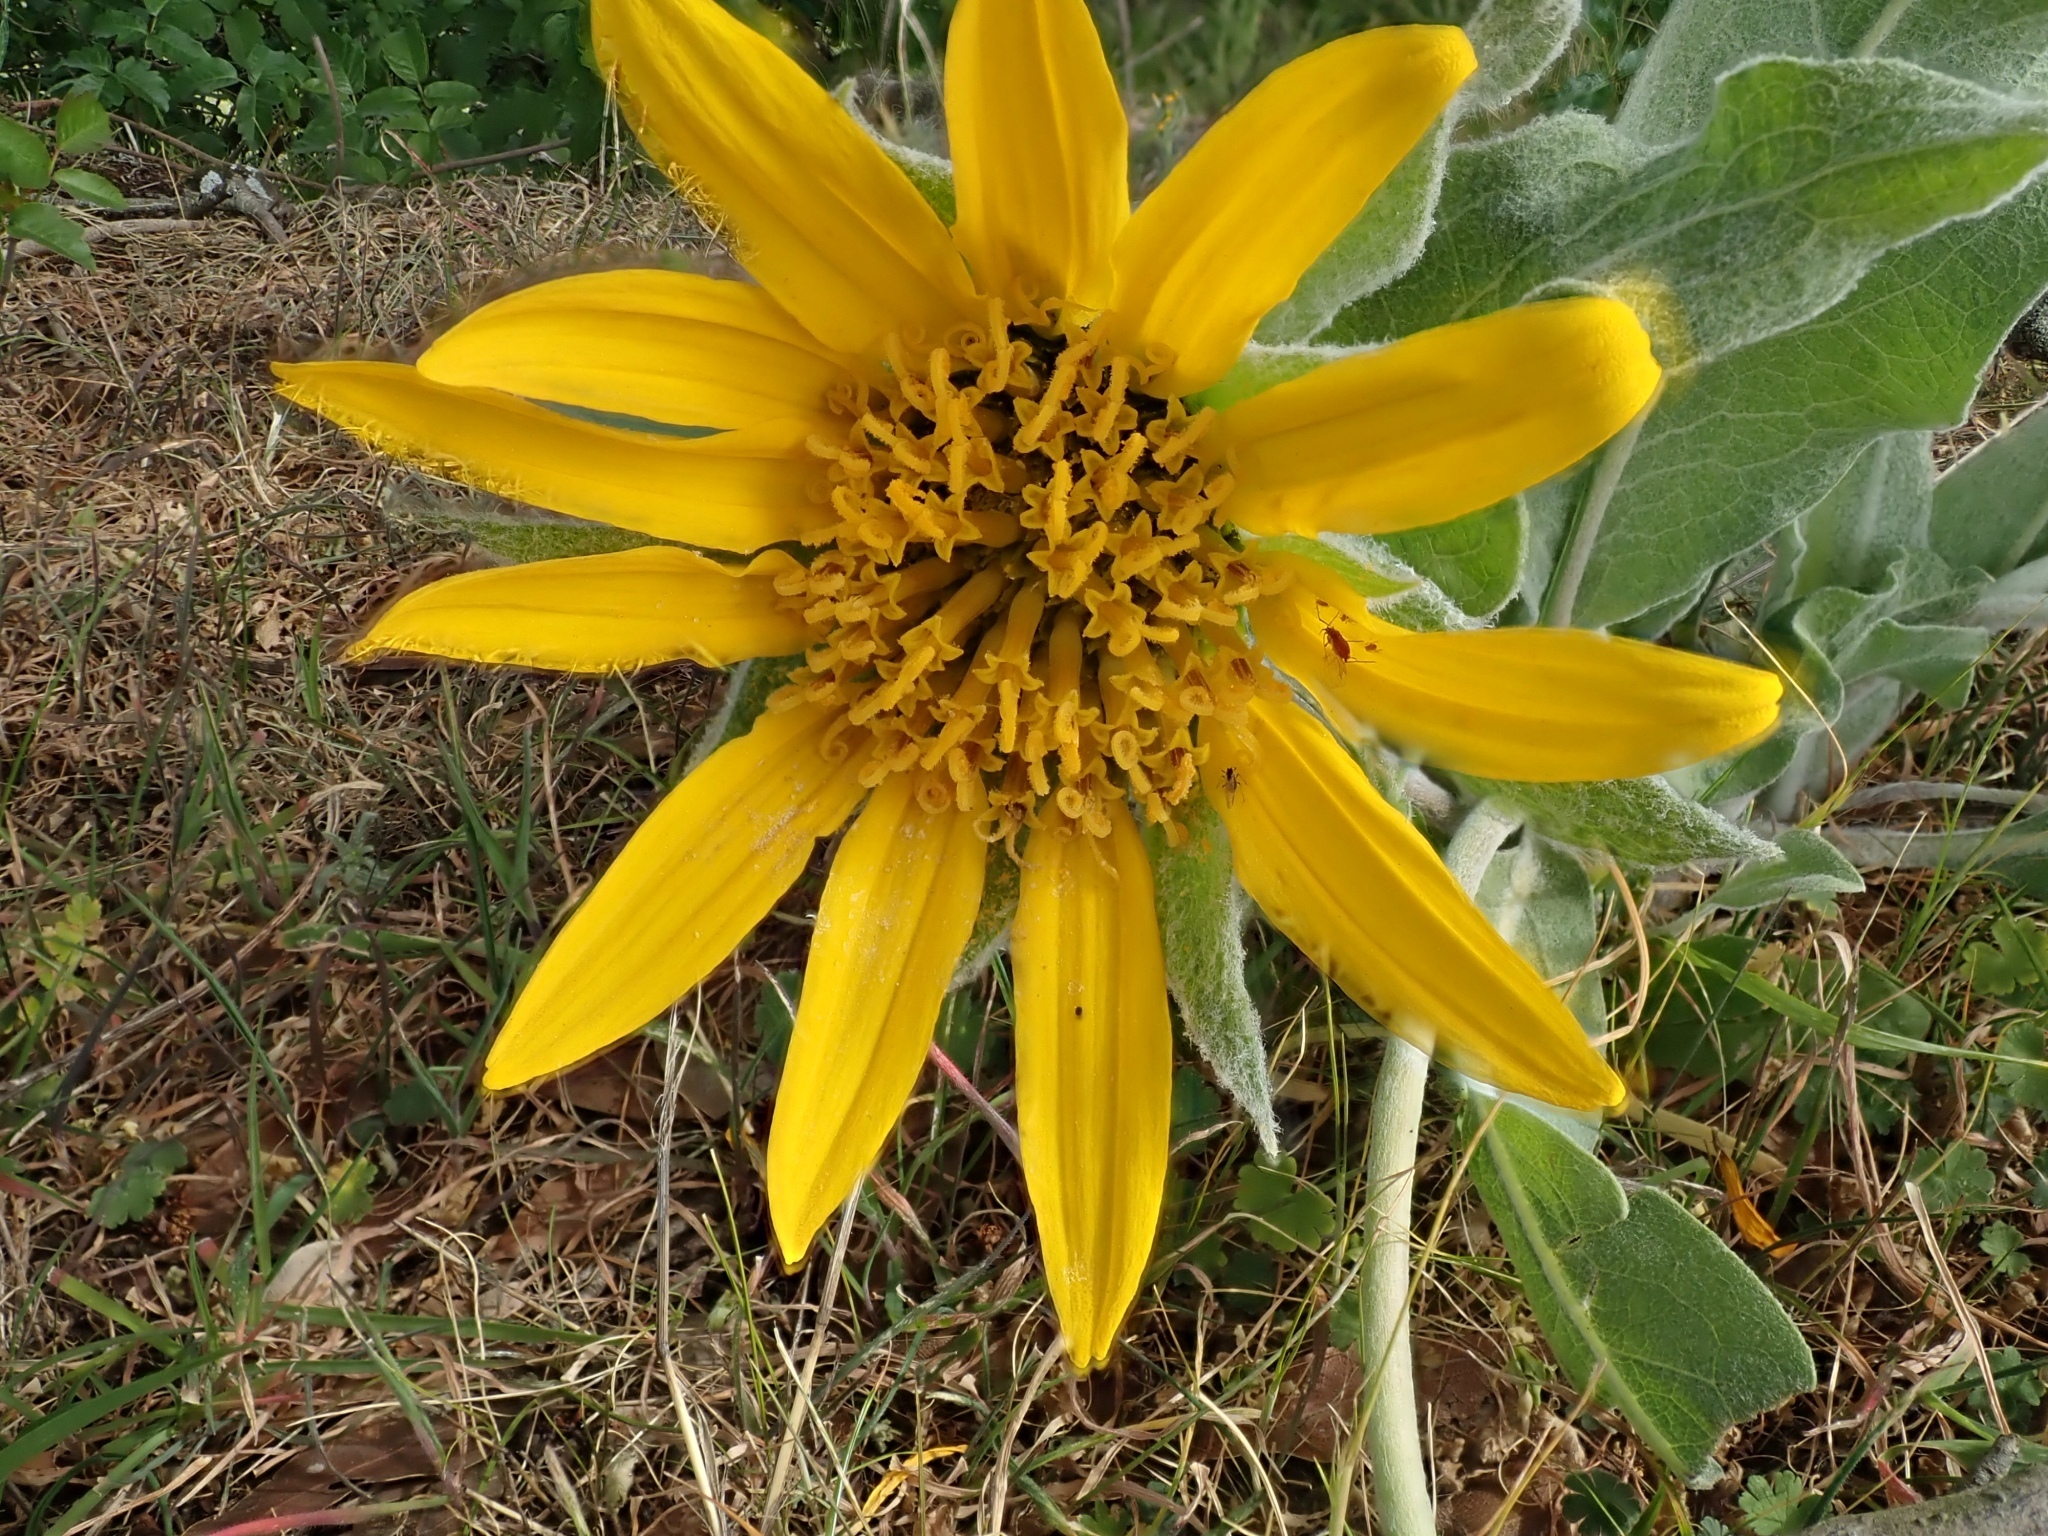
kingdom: Plantae
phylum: Tracheophyta
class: Magnoliopsida
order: Asterales
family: Asteraceae
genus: Wyethia
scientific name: Wyethia helenioides
